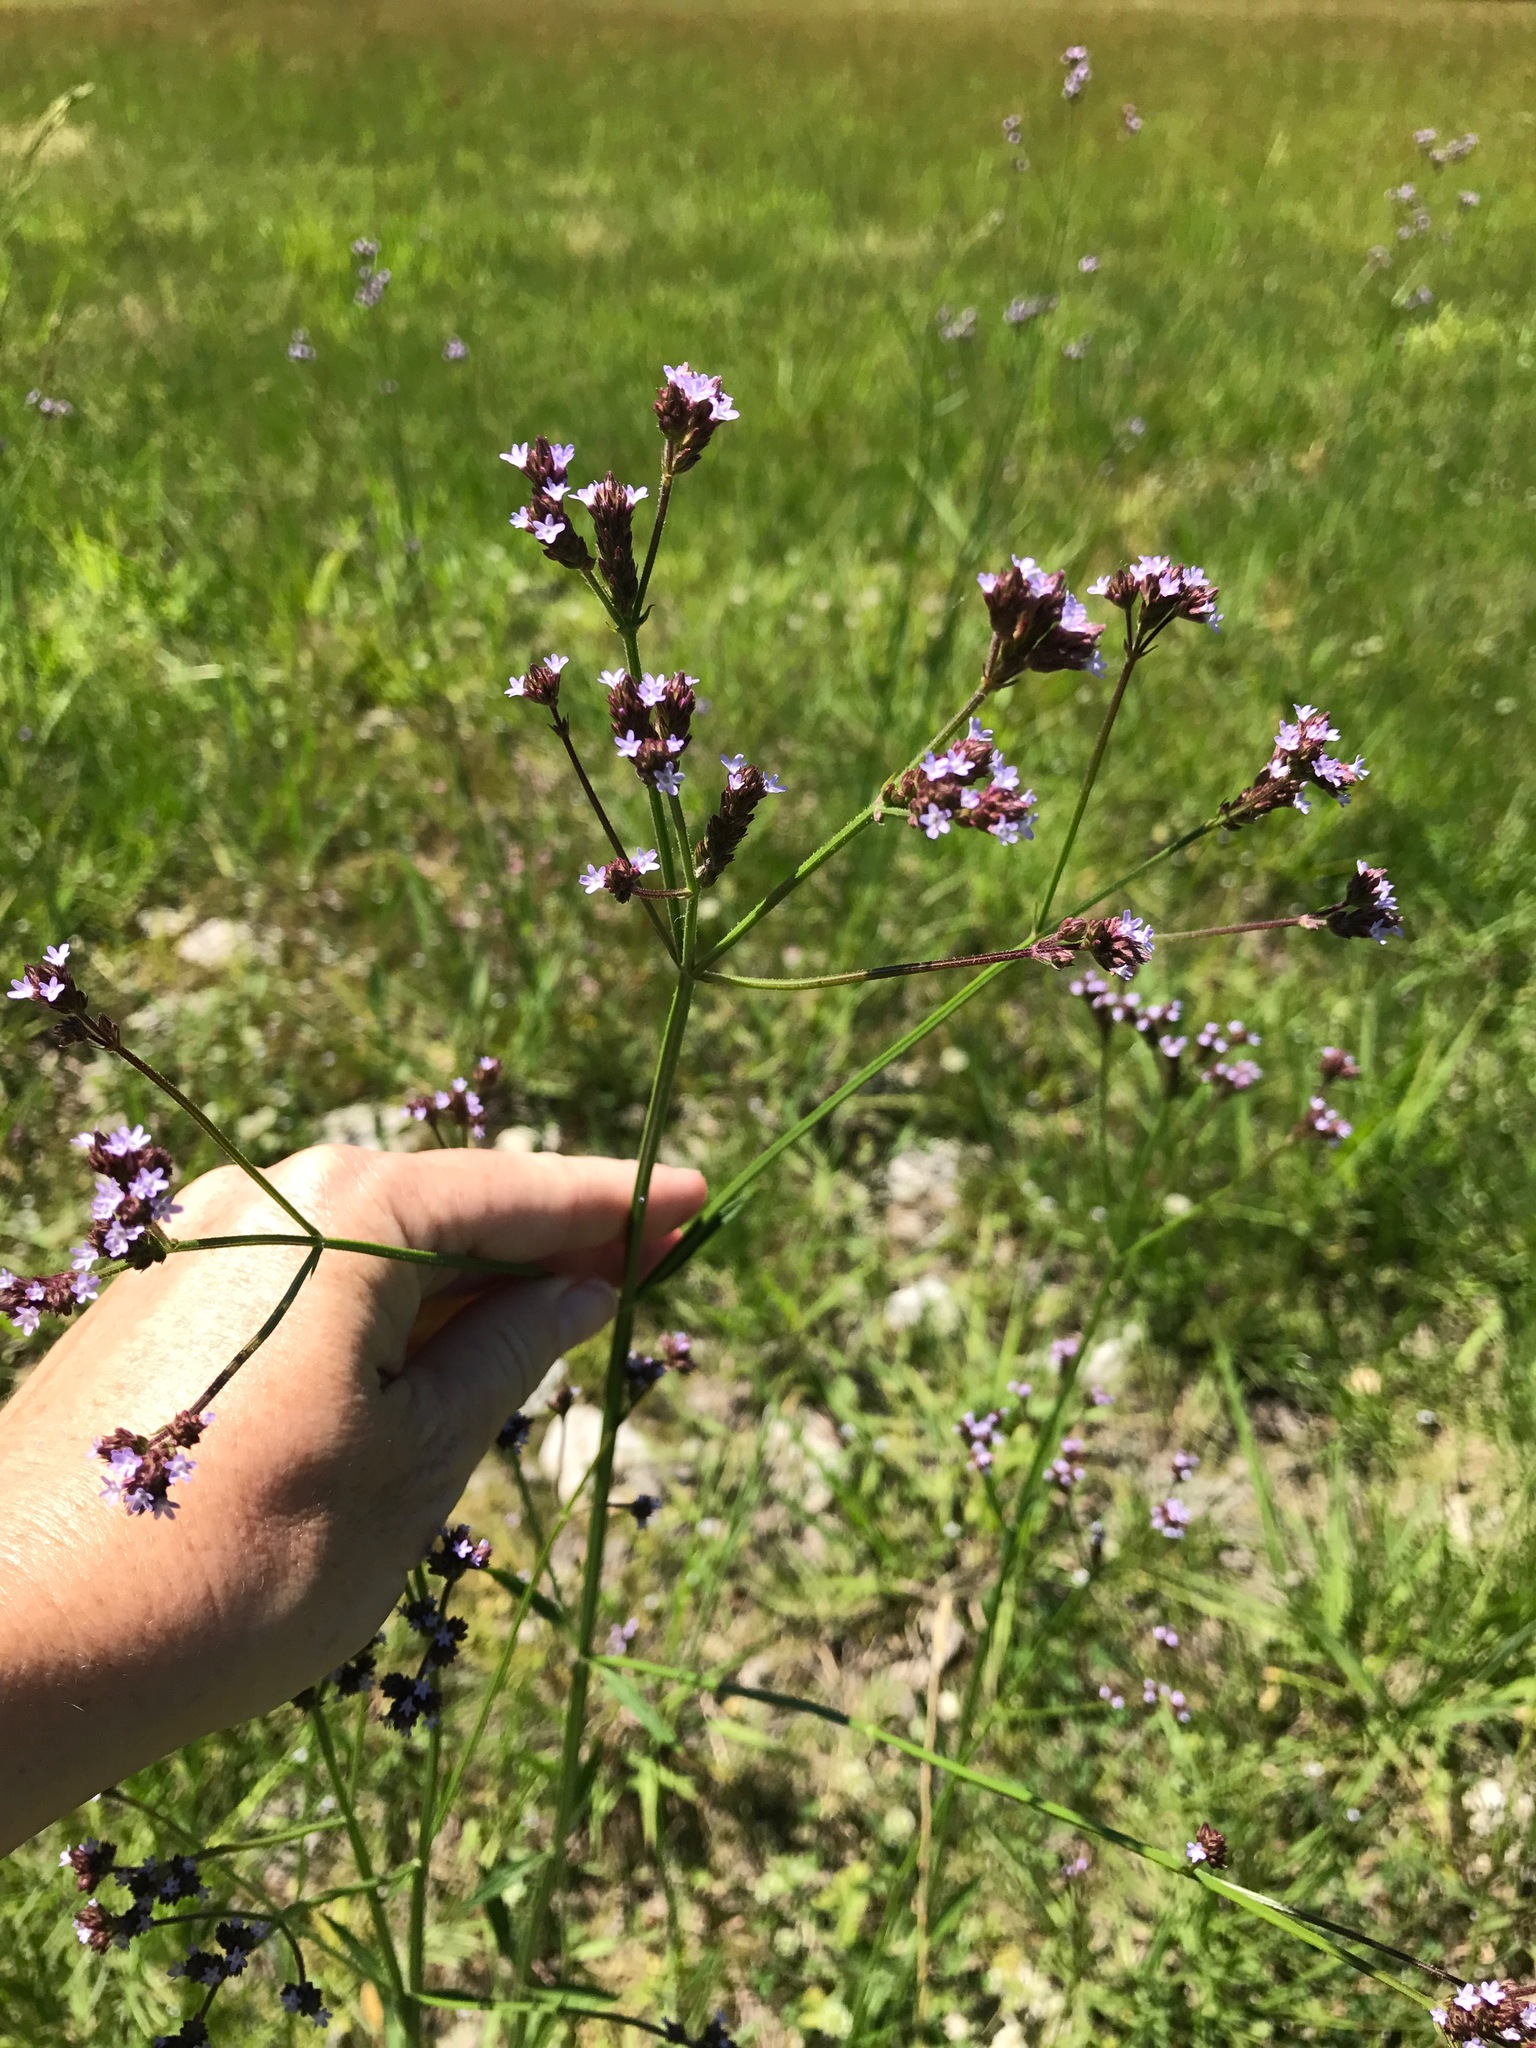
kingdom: Plantae
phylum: Tracheophyta
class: Magnoliopsida
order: Lamiales
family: Verbenaceae
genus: Verbena
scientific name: Verbena brasiliensis
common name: Brazilian vervain
